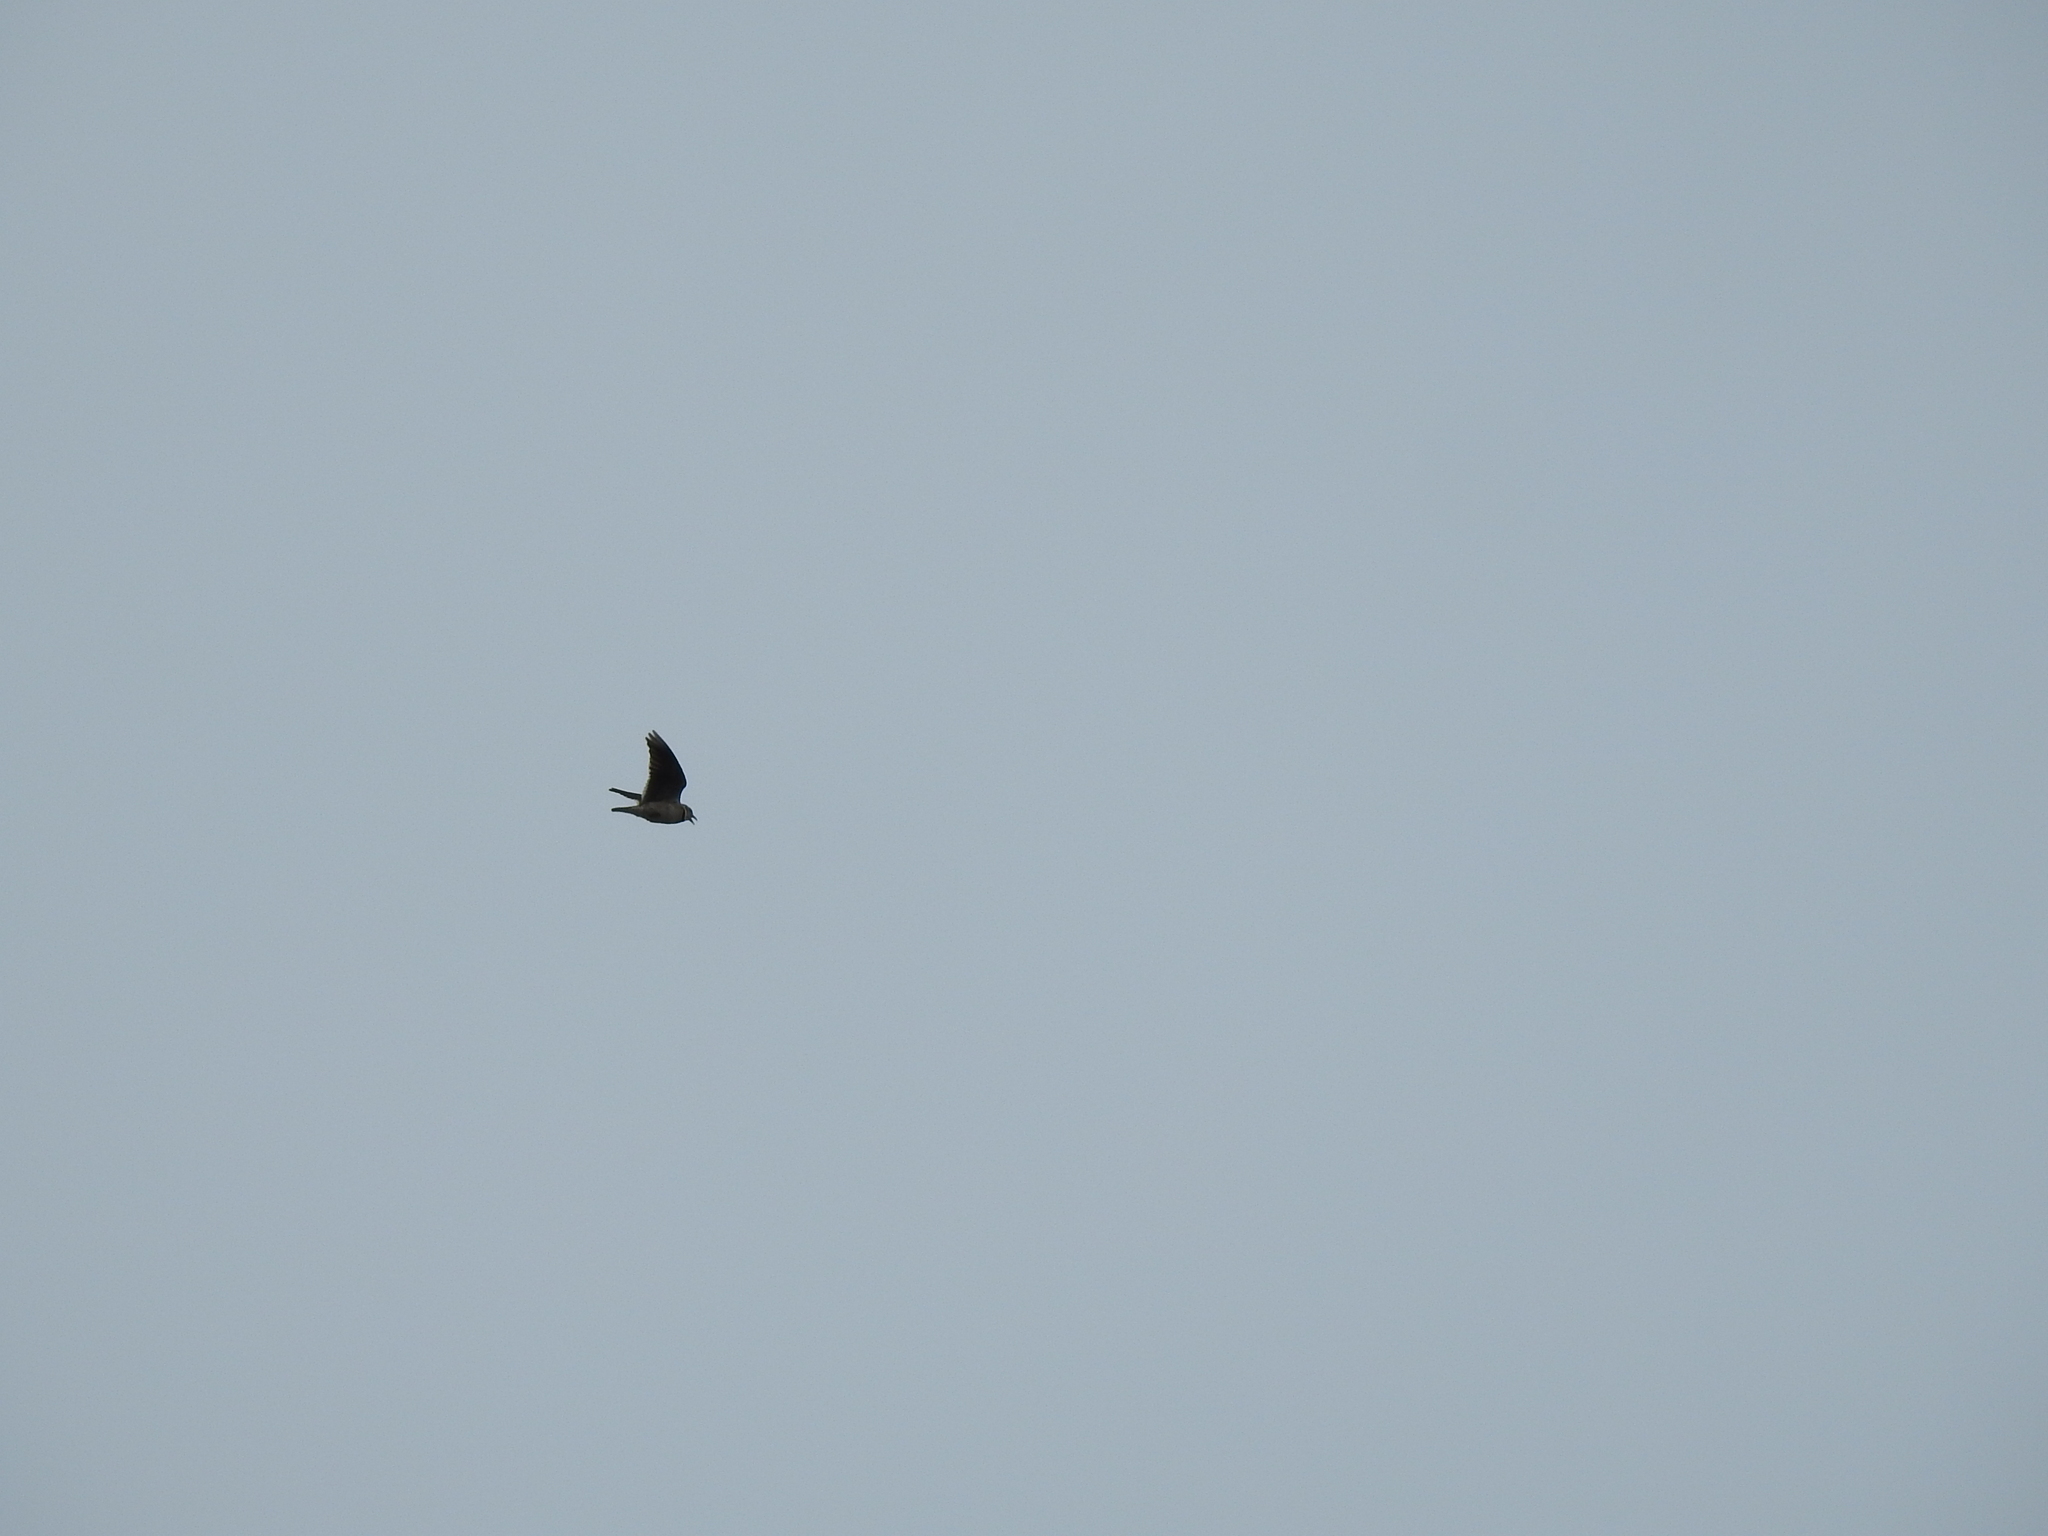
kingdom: Animalia
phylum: Chordata
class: Aves
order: Passeriformes
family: Alaudidae
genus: Melanocorypha
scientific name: Melanocorypha calandra
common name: Calandra lark
